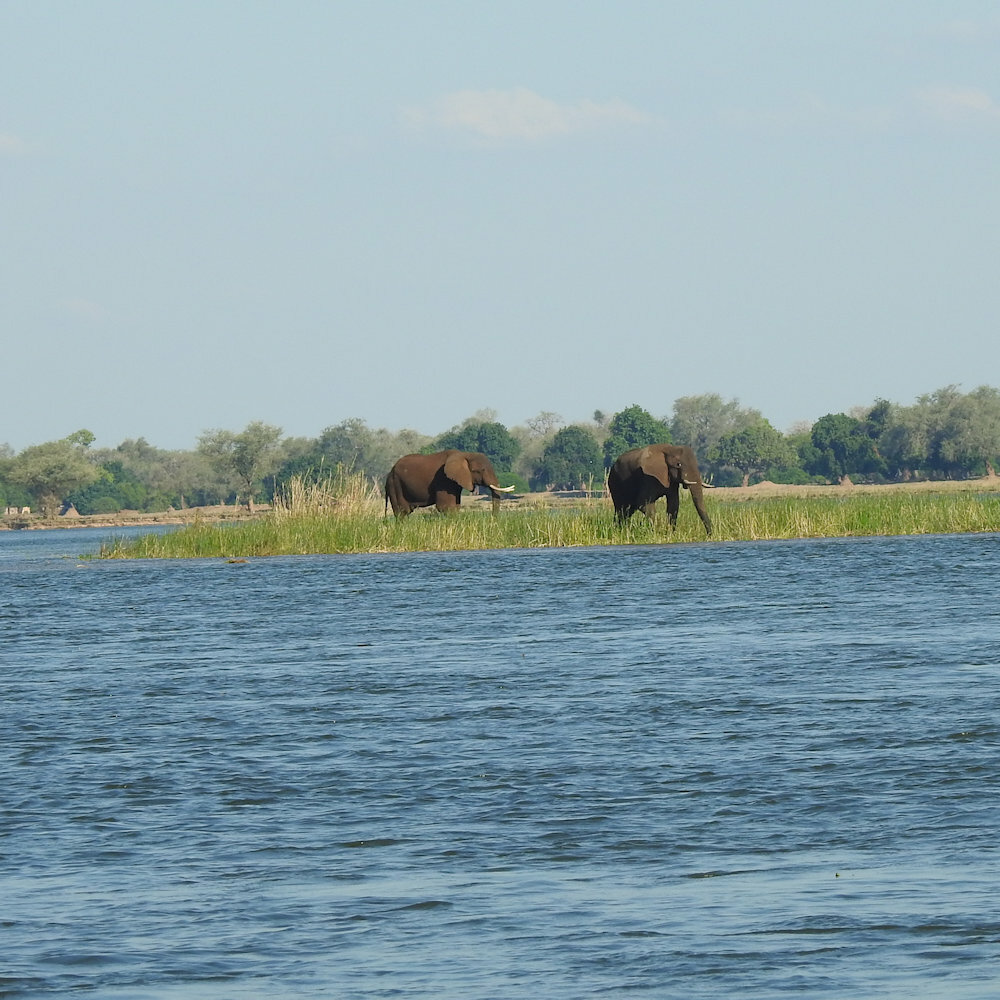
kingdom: Animalia
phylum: Chordata
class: Mammalia
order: Proboscidea
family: Elephantidae
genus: Loxodonta
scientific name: Loxodonta africana
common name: African elephant
